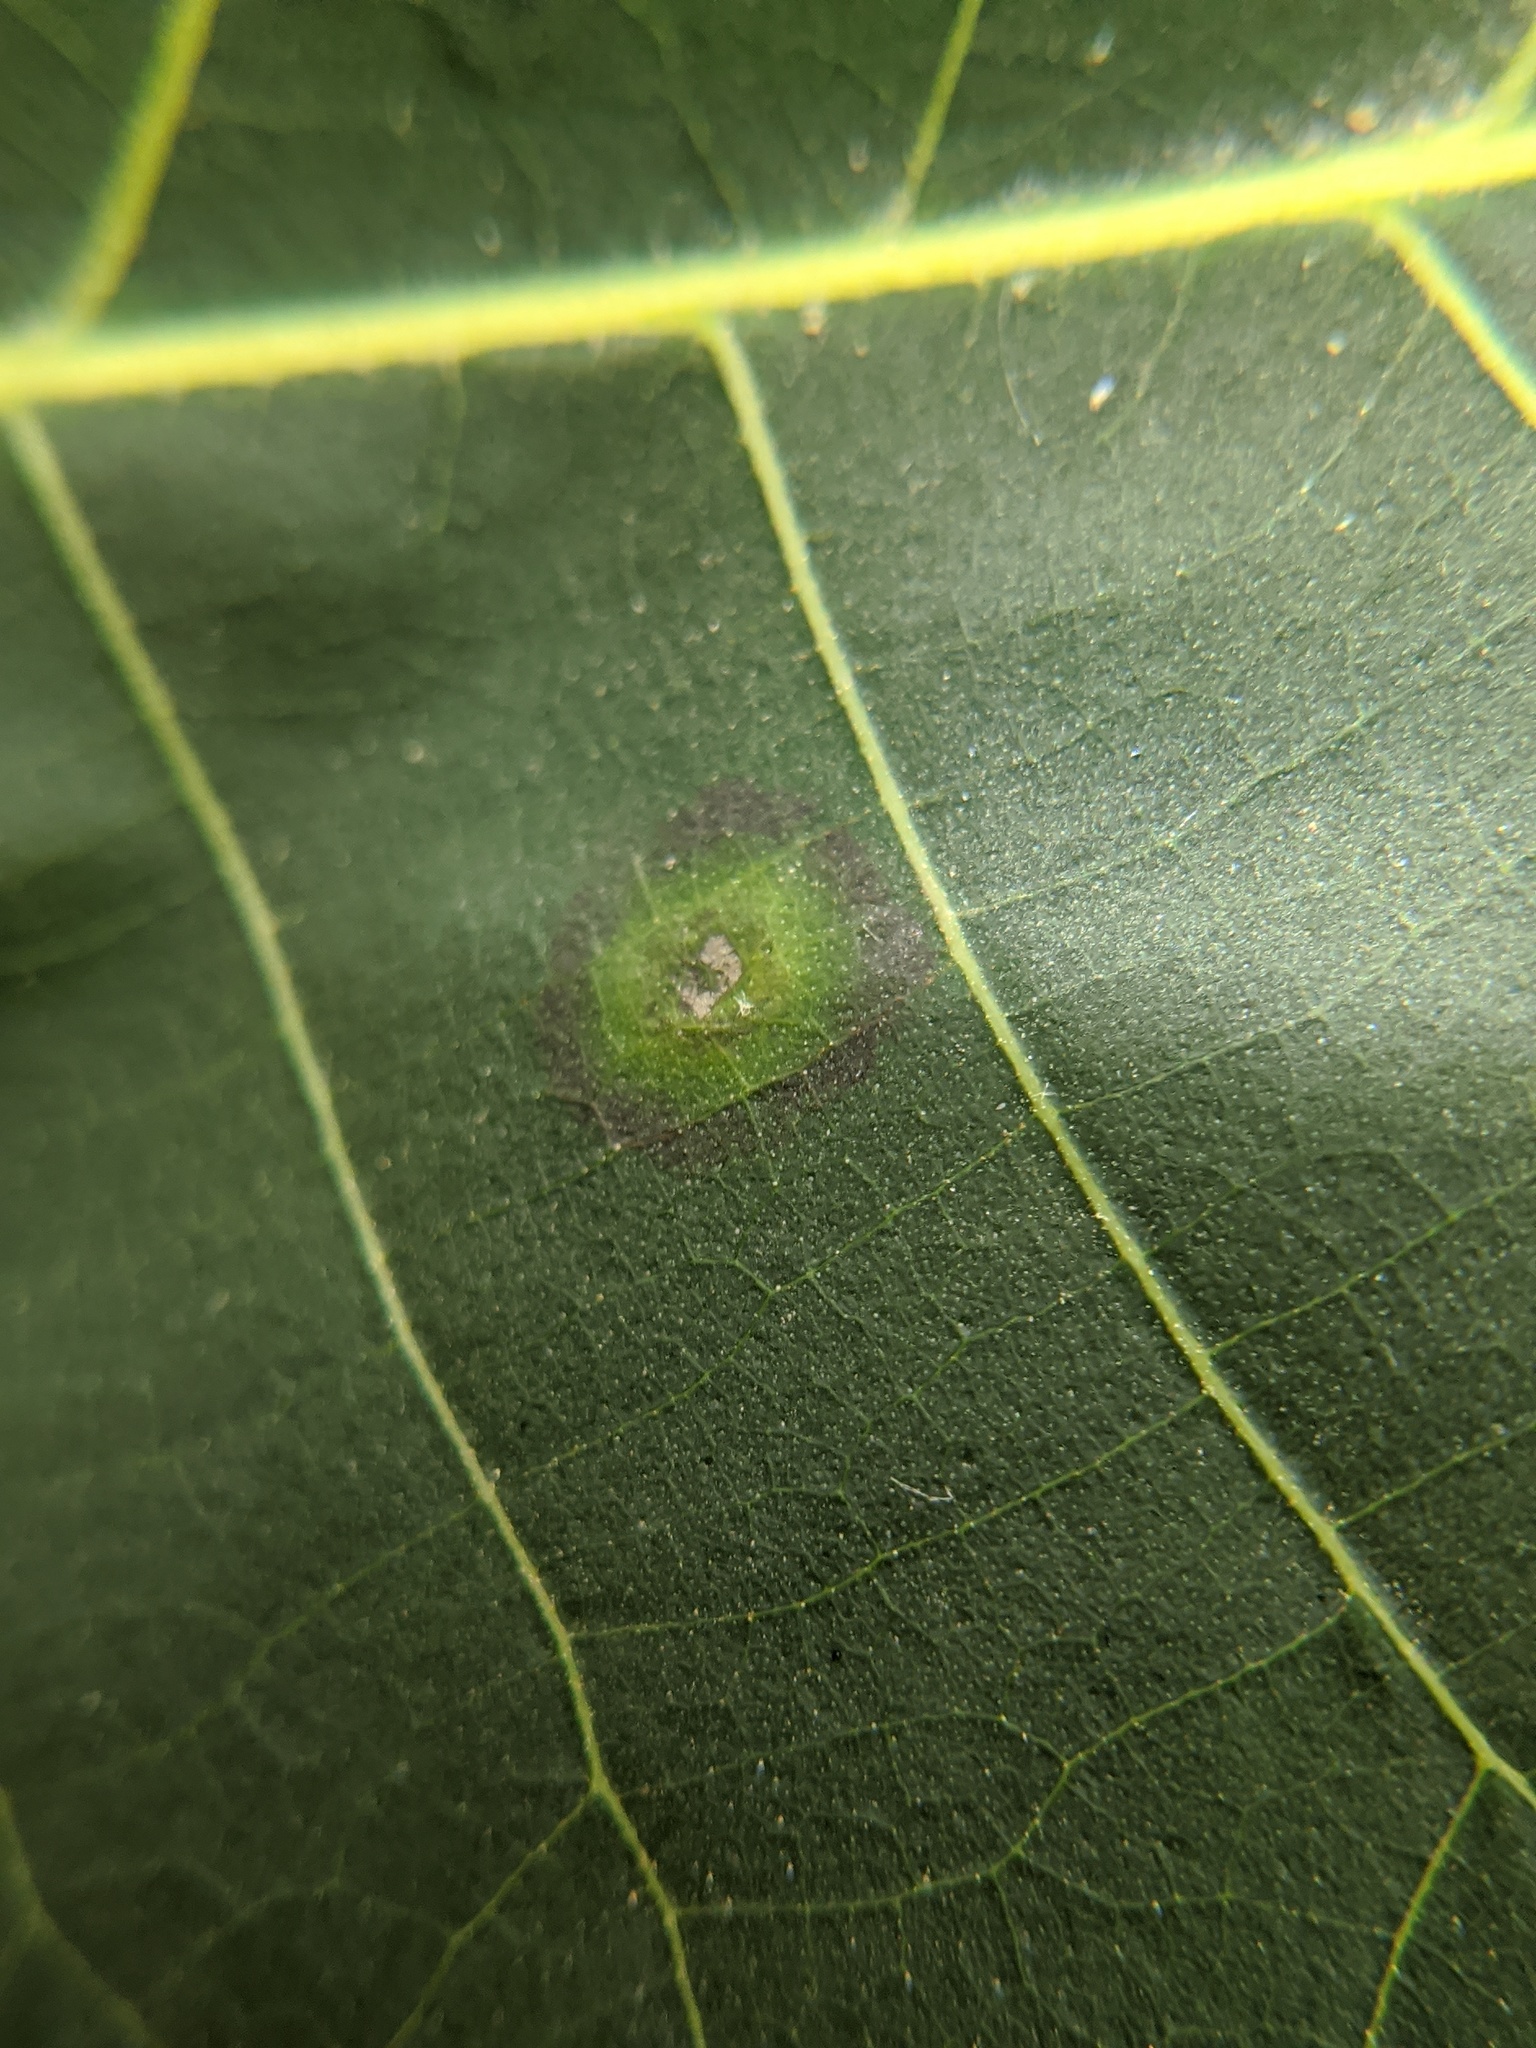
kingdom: Animalia
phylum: Arthropoda
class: Insecta
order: Diptera
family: Cecidomyiidae
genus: Gliaspilota
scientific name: Gliaspilota glutinosa
